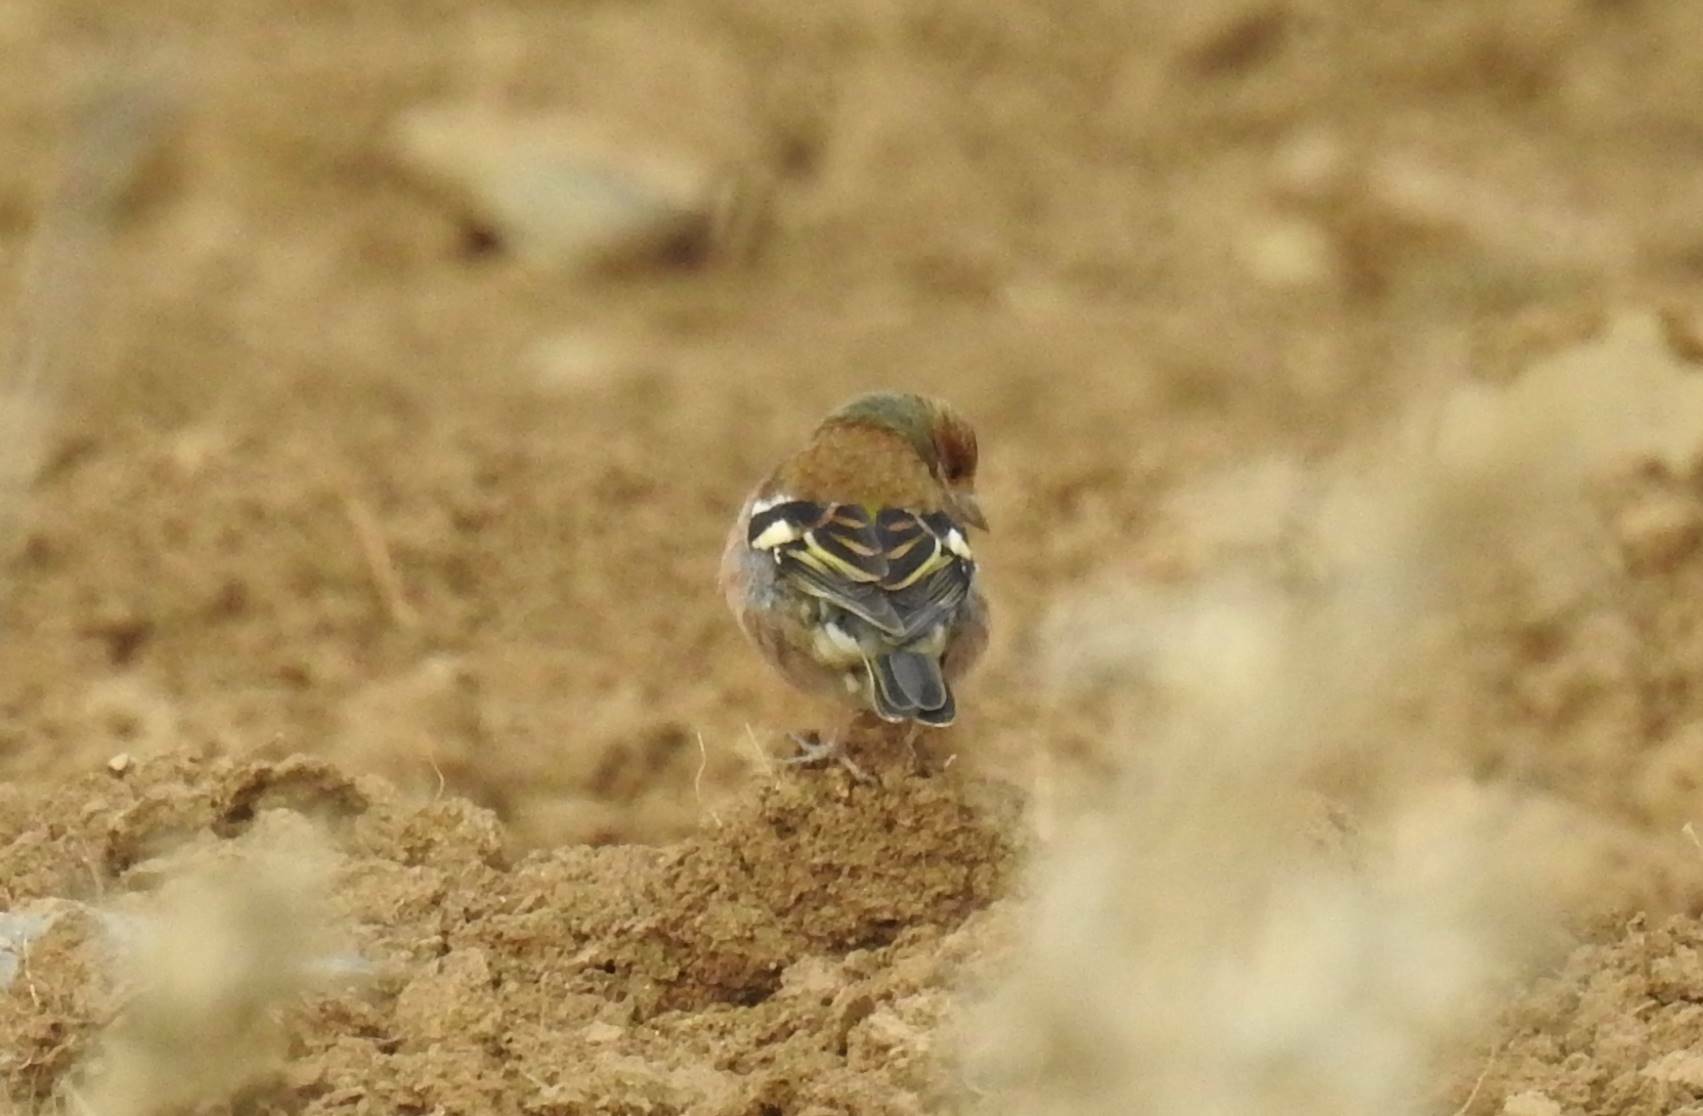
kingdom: Animalia
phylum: Chordata
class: Aves
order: Passeriformes
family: Fringillidae
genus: Fringilla
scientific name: Fringilla coelebs
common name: Common chaffinch
